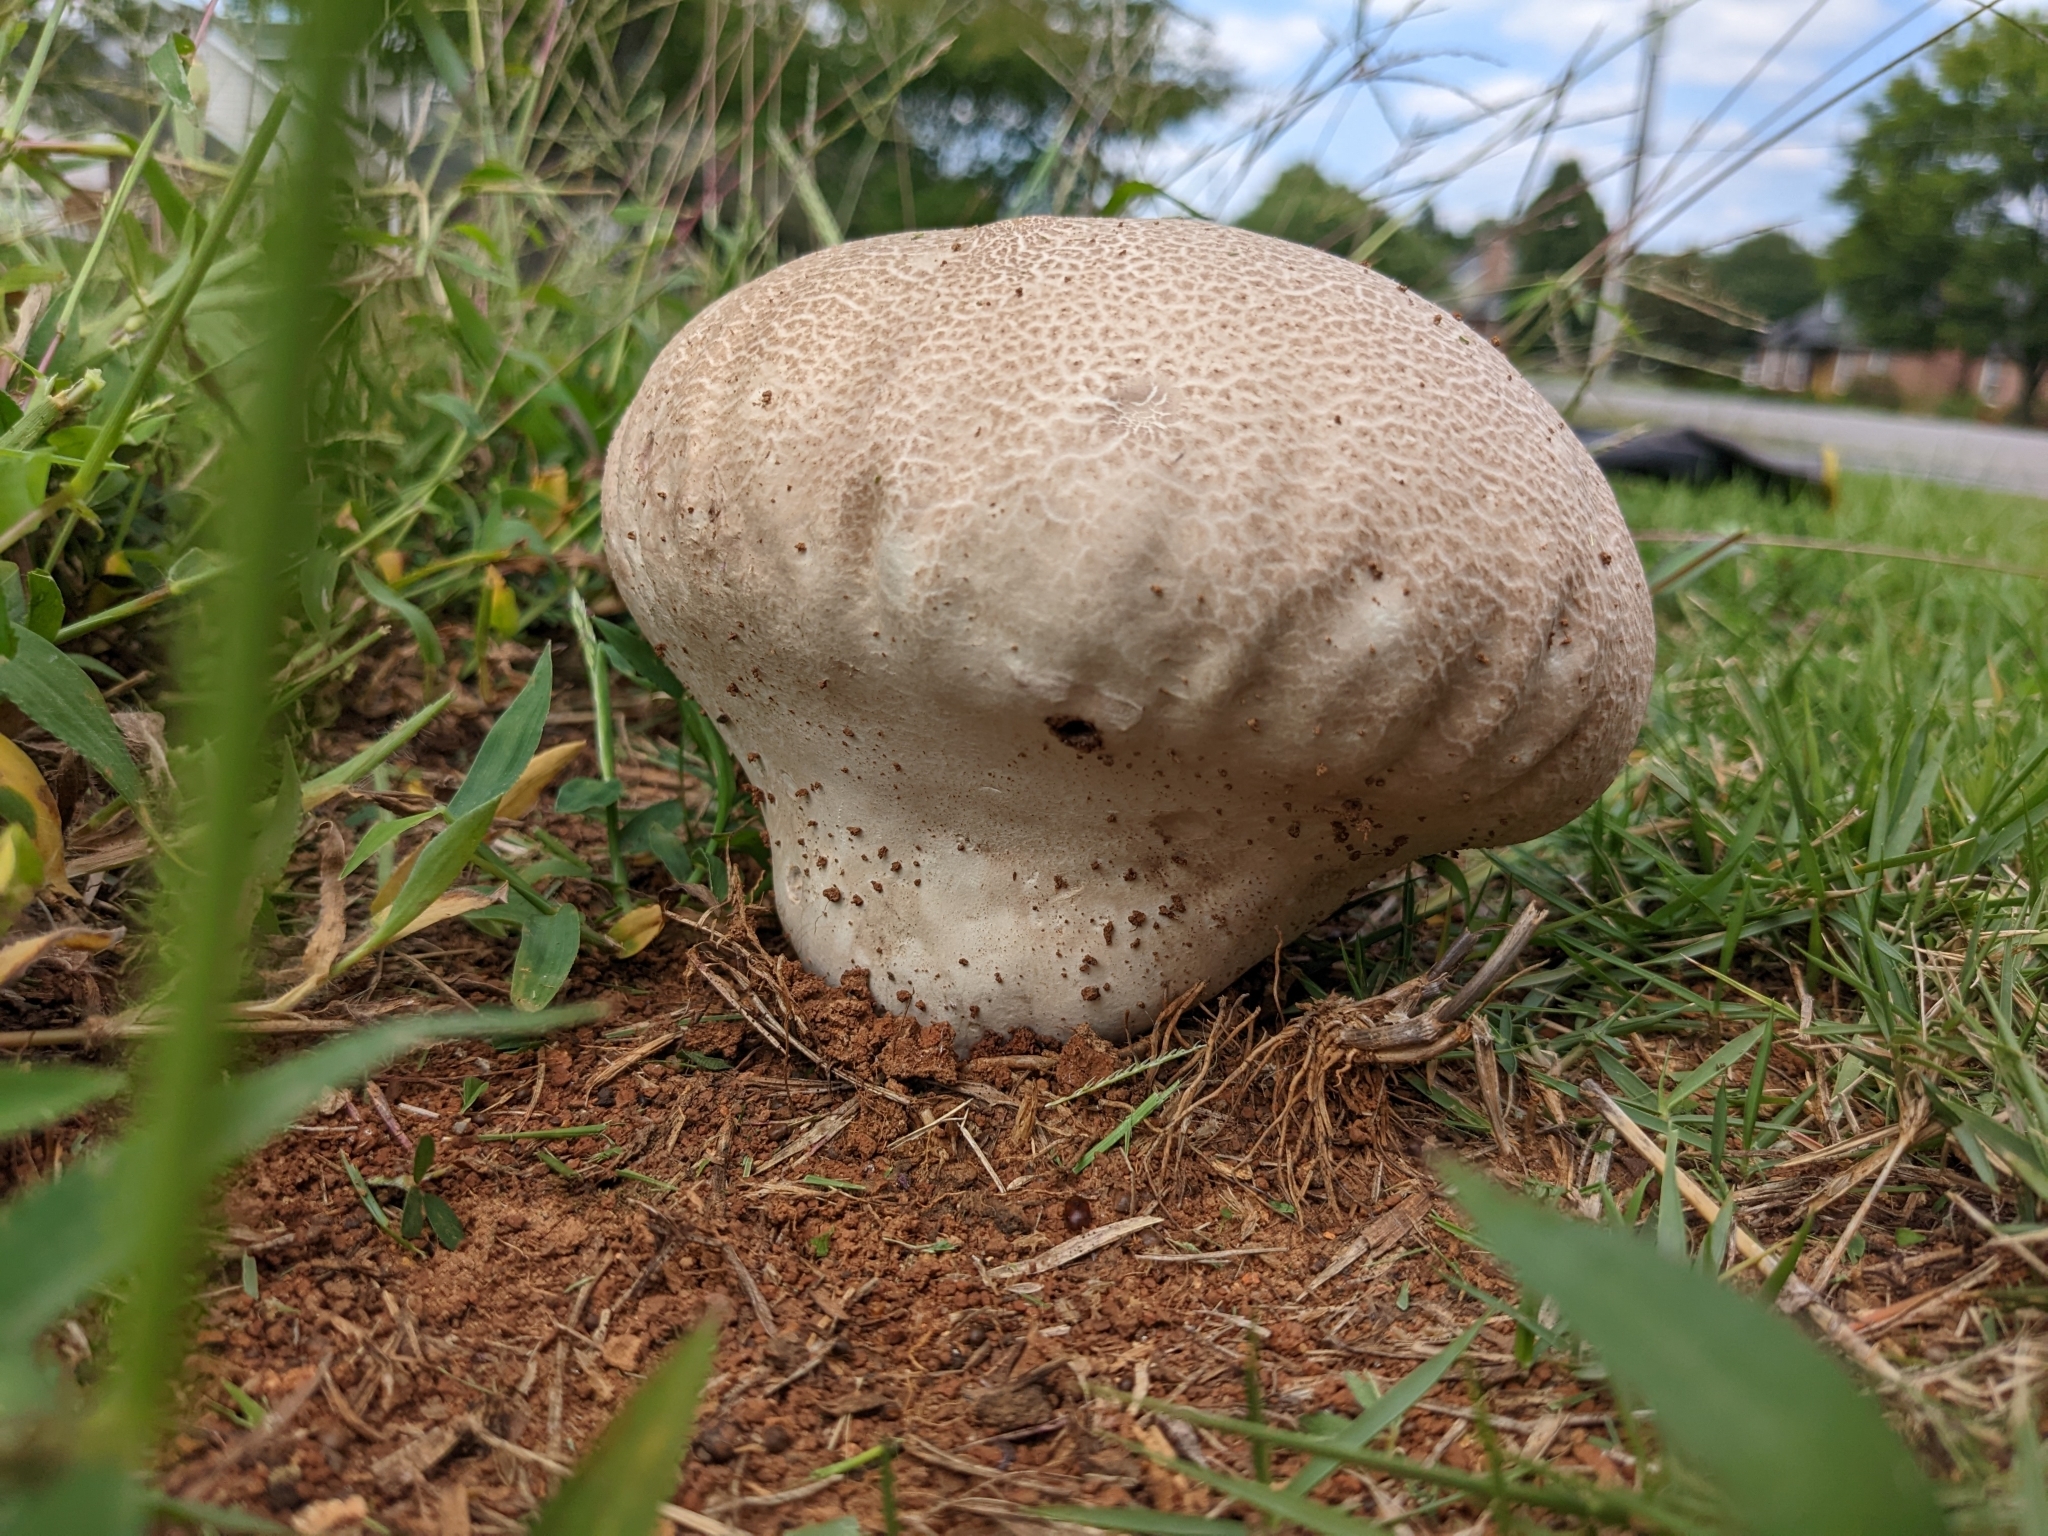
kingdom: Fungi
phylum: Basidiomycota
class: Agaricomycetes
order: Agaricales
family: Lycoperdaceae
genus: Calvatia
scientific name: Calvatia cyathiformis
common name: Purple-spored puffball
